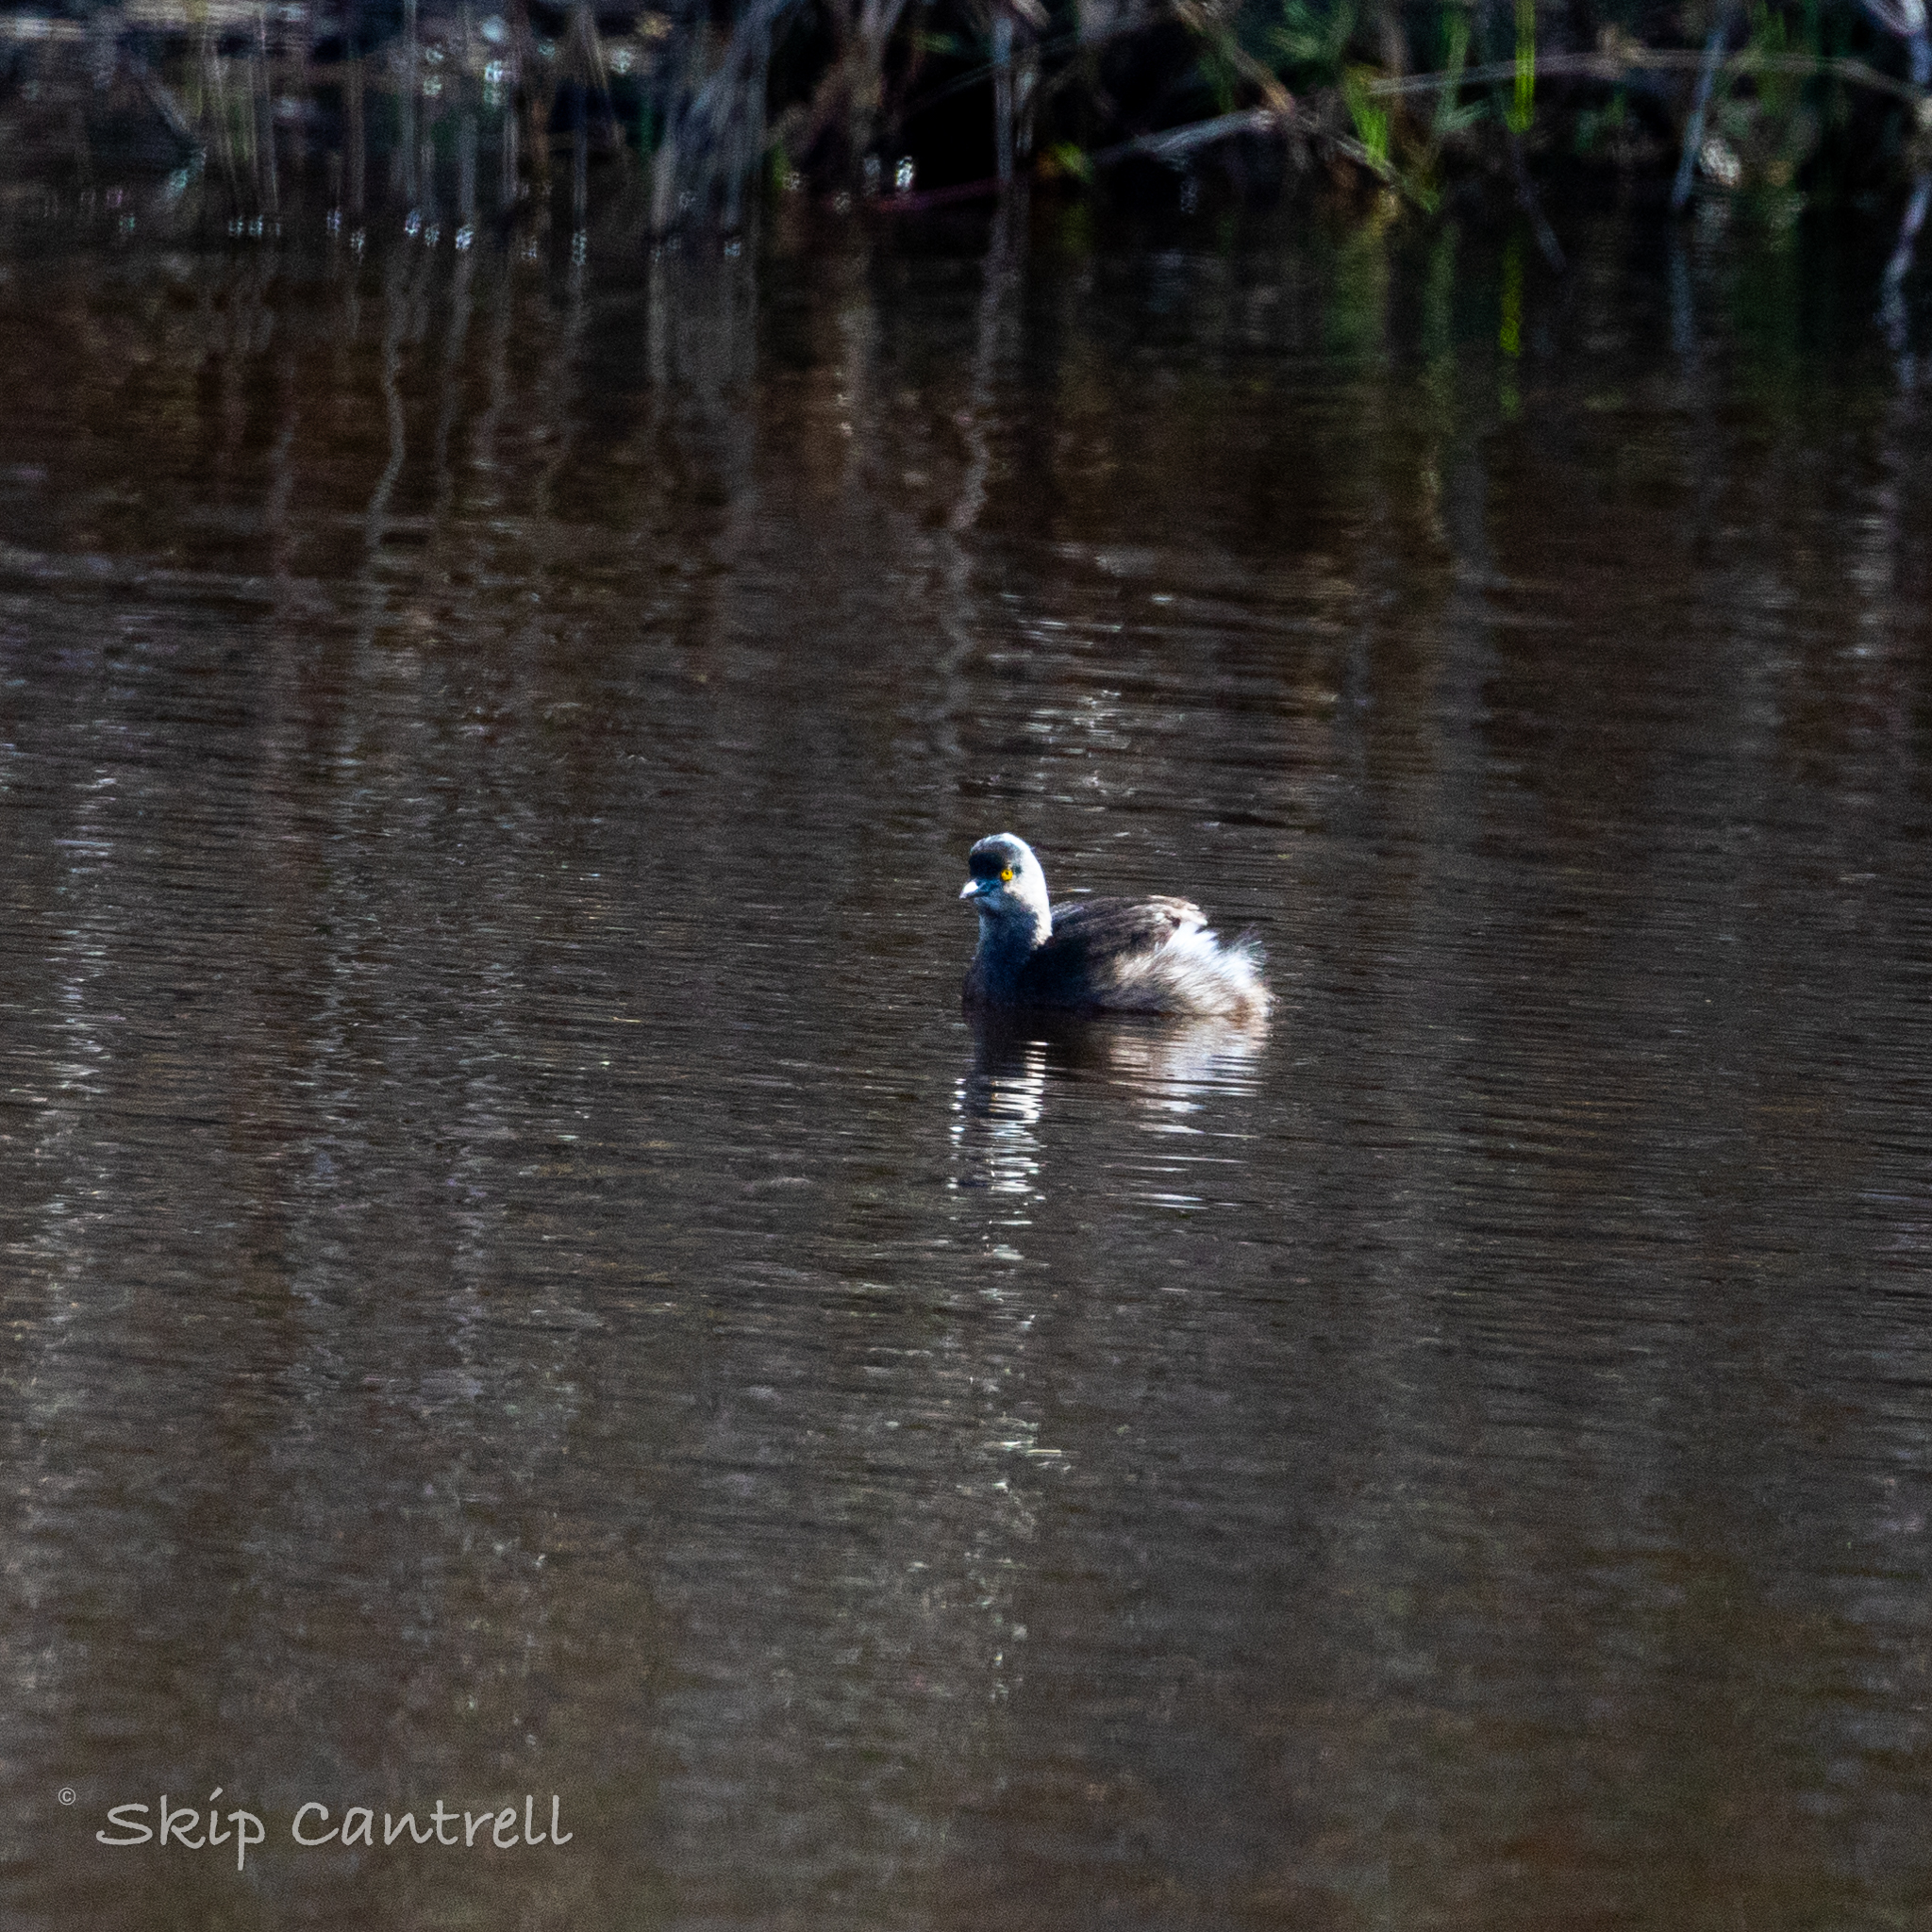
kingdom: Animalia
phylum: Chordata
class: Aves
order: Podicipediformes
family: Podicipedidae
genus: Tachybaptus
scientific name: Tachybaptus dominicus
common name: Least grebe
